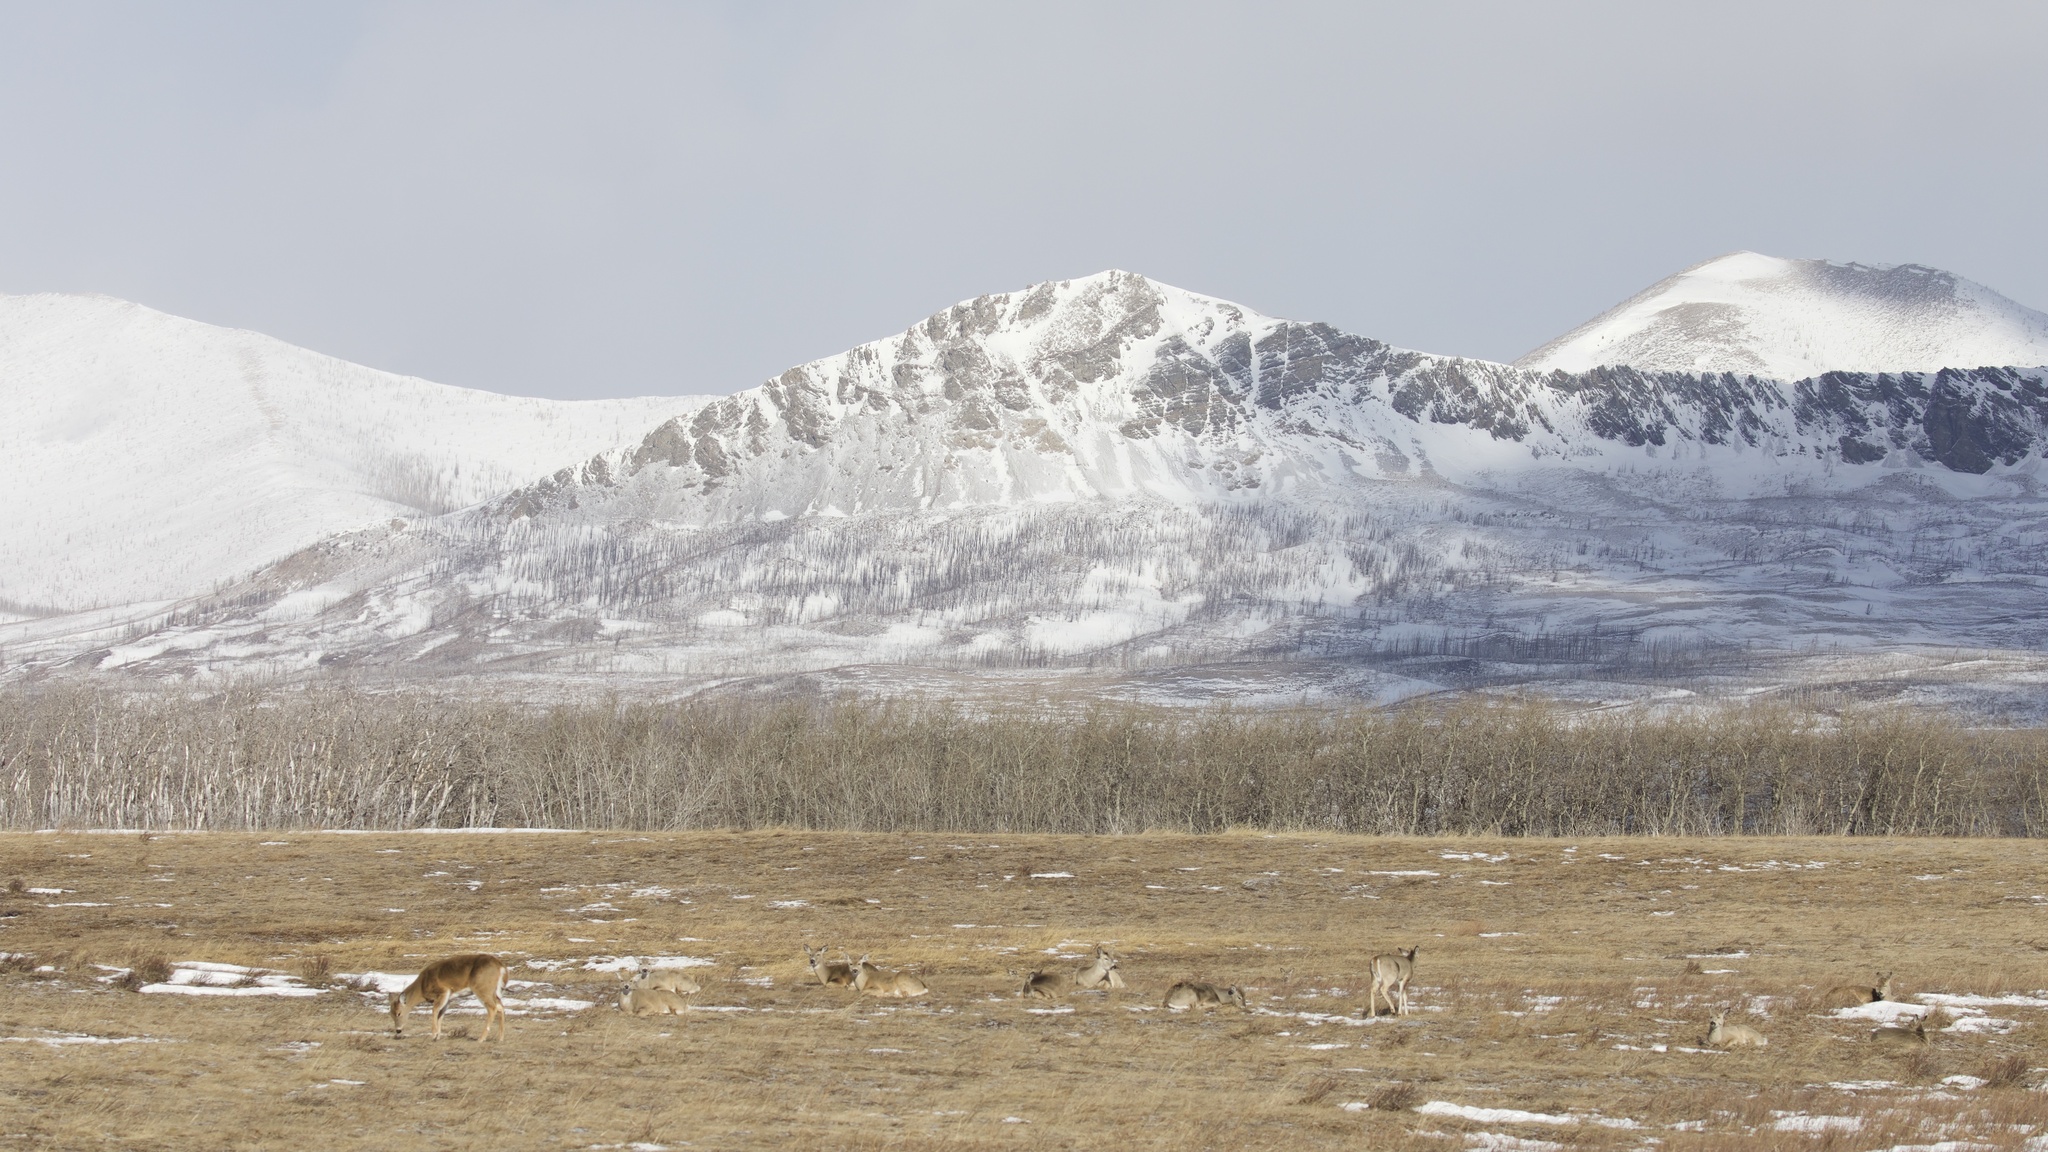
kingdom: Animalia
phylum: Chordata
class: Mammalia
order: Artiodactyla
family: Cervidae
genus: Odocoileus
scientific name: Odocoileus virginianus
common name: White-tailed deer
